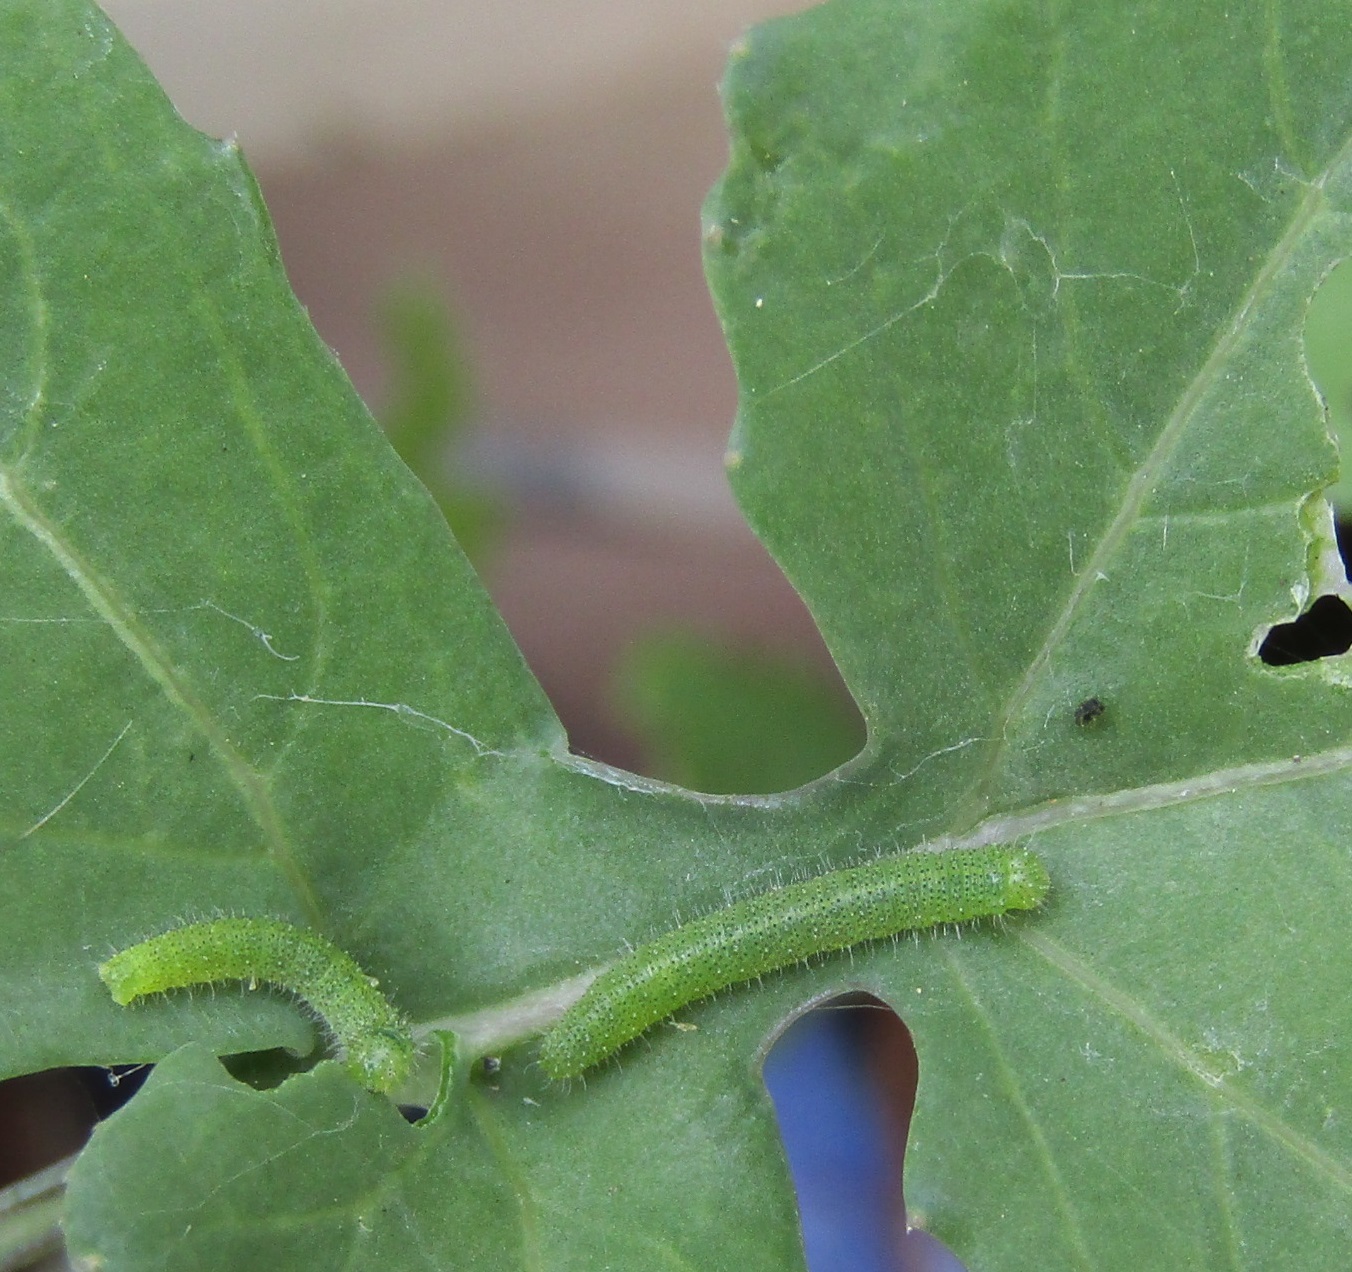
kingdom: Animalia
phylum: Arthropoda
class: Insecta
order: Lepidoptera
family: Pieridae
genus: Pieris
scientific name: Pieris rapae
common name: Small white
